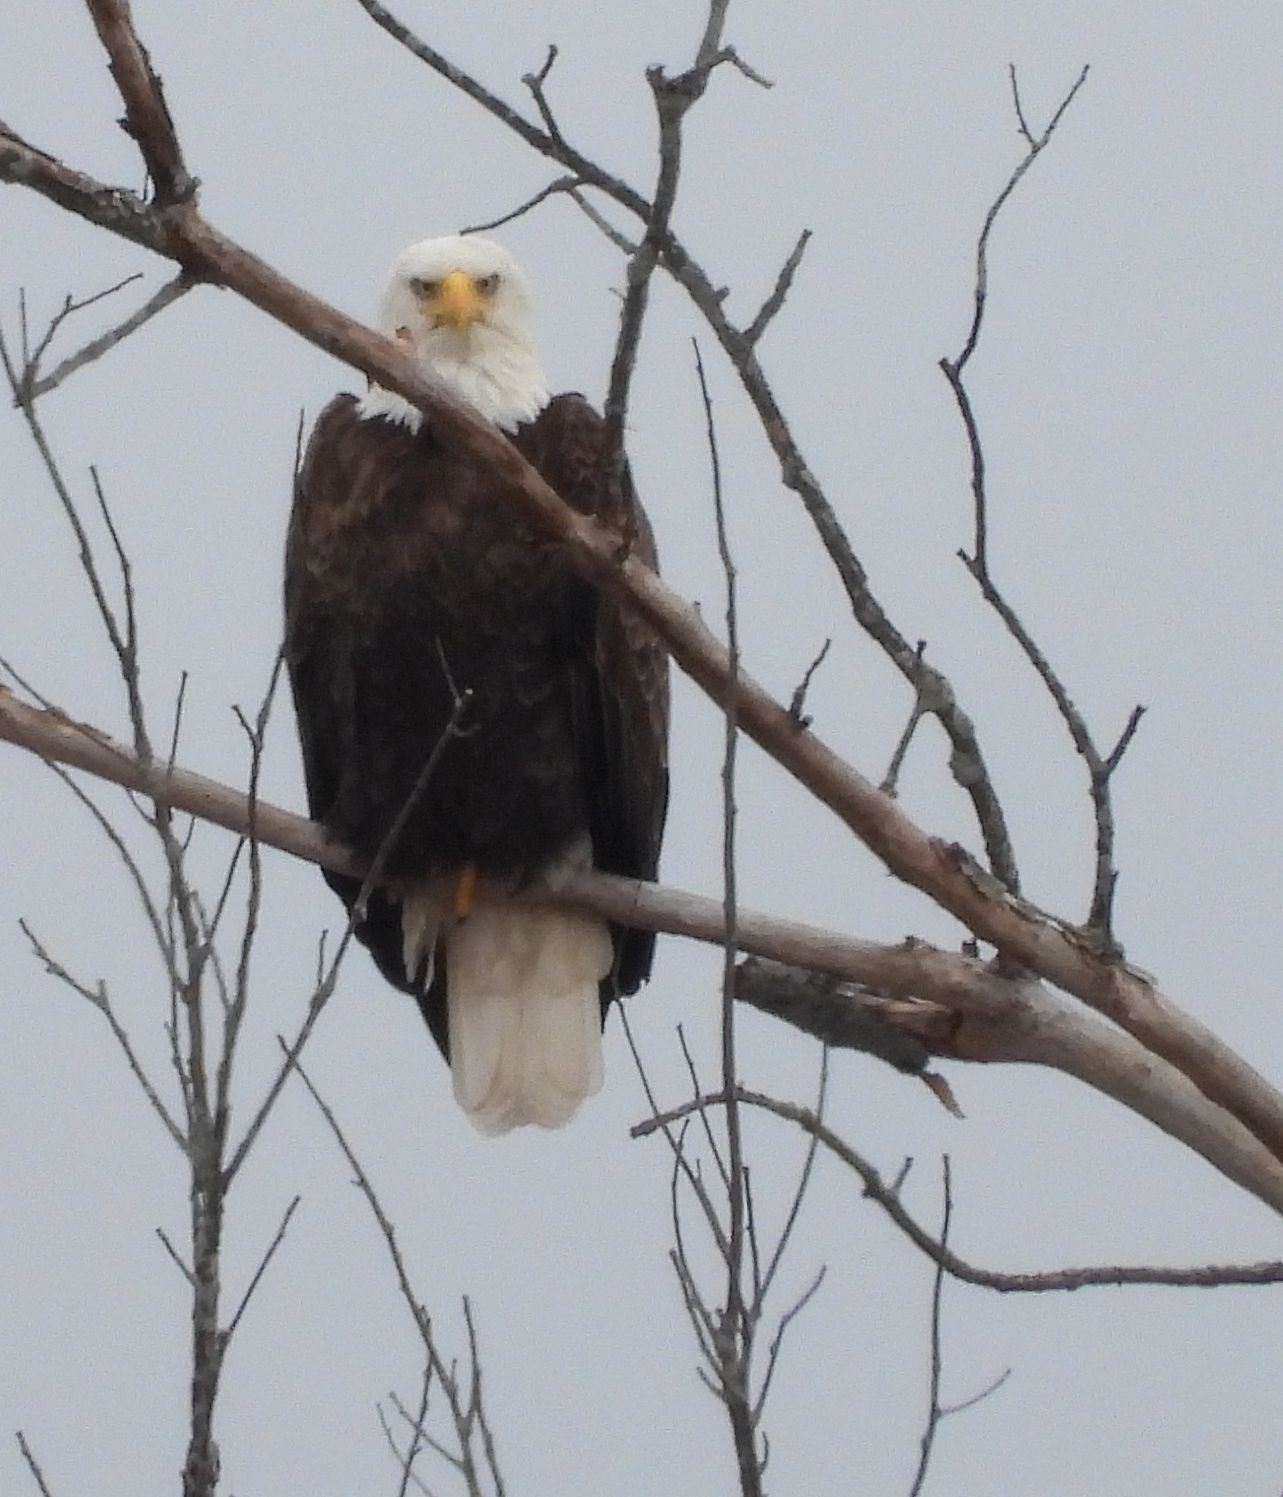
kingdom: Animalia
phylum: Chordata
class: Aves
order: Accipitriformes
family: Accipitridae
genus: Haliaeetus
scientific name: Haliaeetus leucocephalus
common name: Bald eagle
